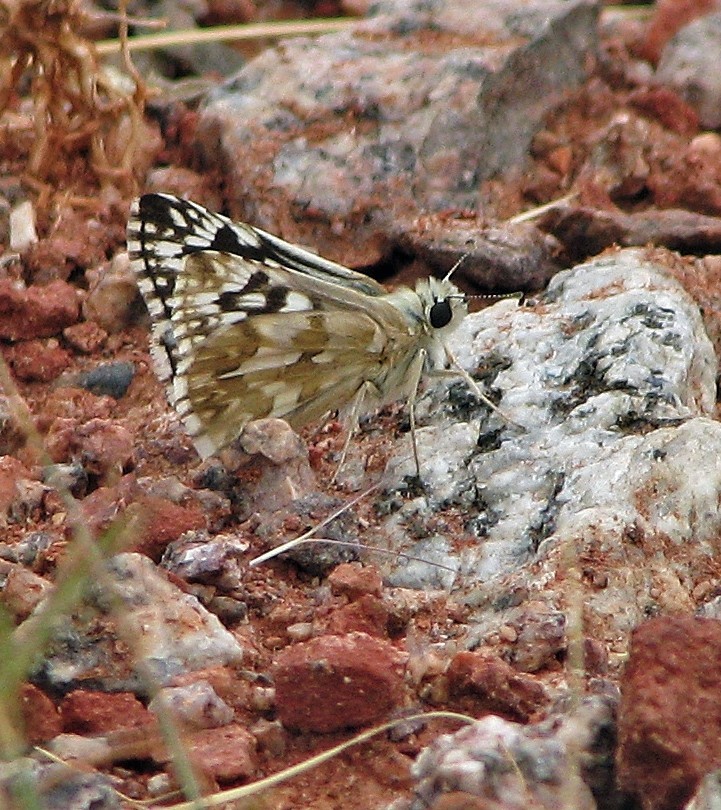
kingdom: Animalia
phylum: Arthropoda
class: Insecta
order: Lepidoptera
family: Hesperiidae
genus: Heliopetes
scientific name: Heliopetes americanus
